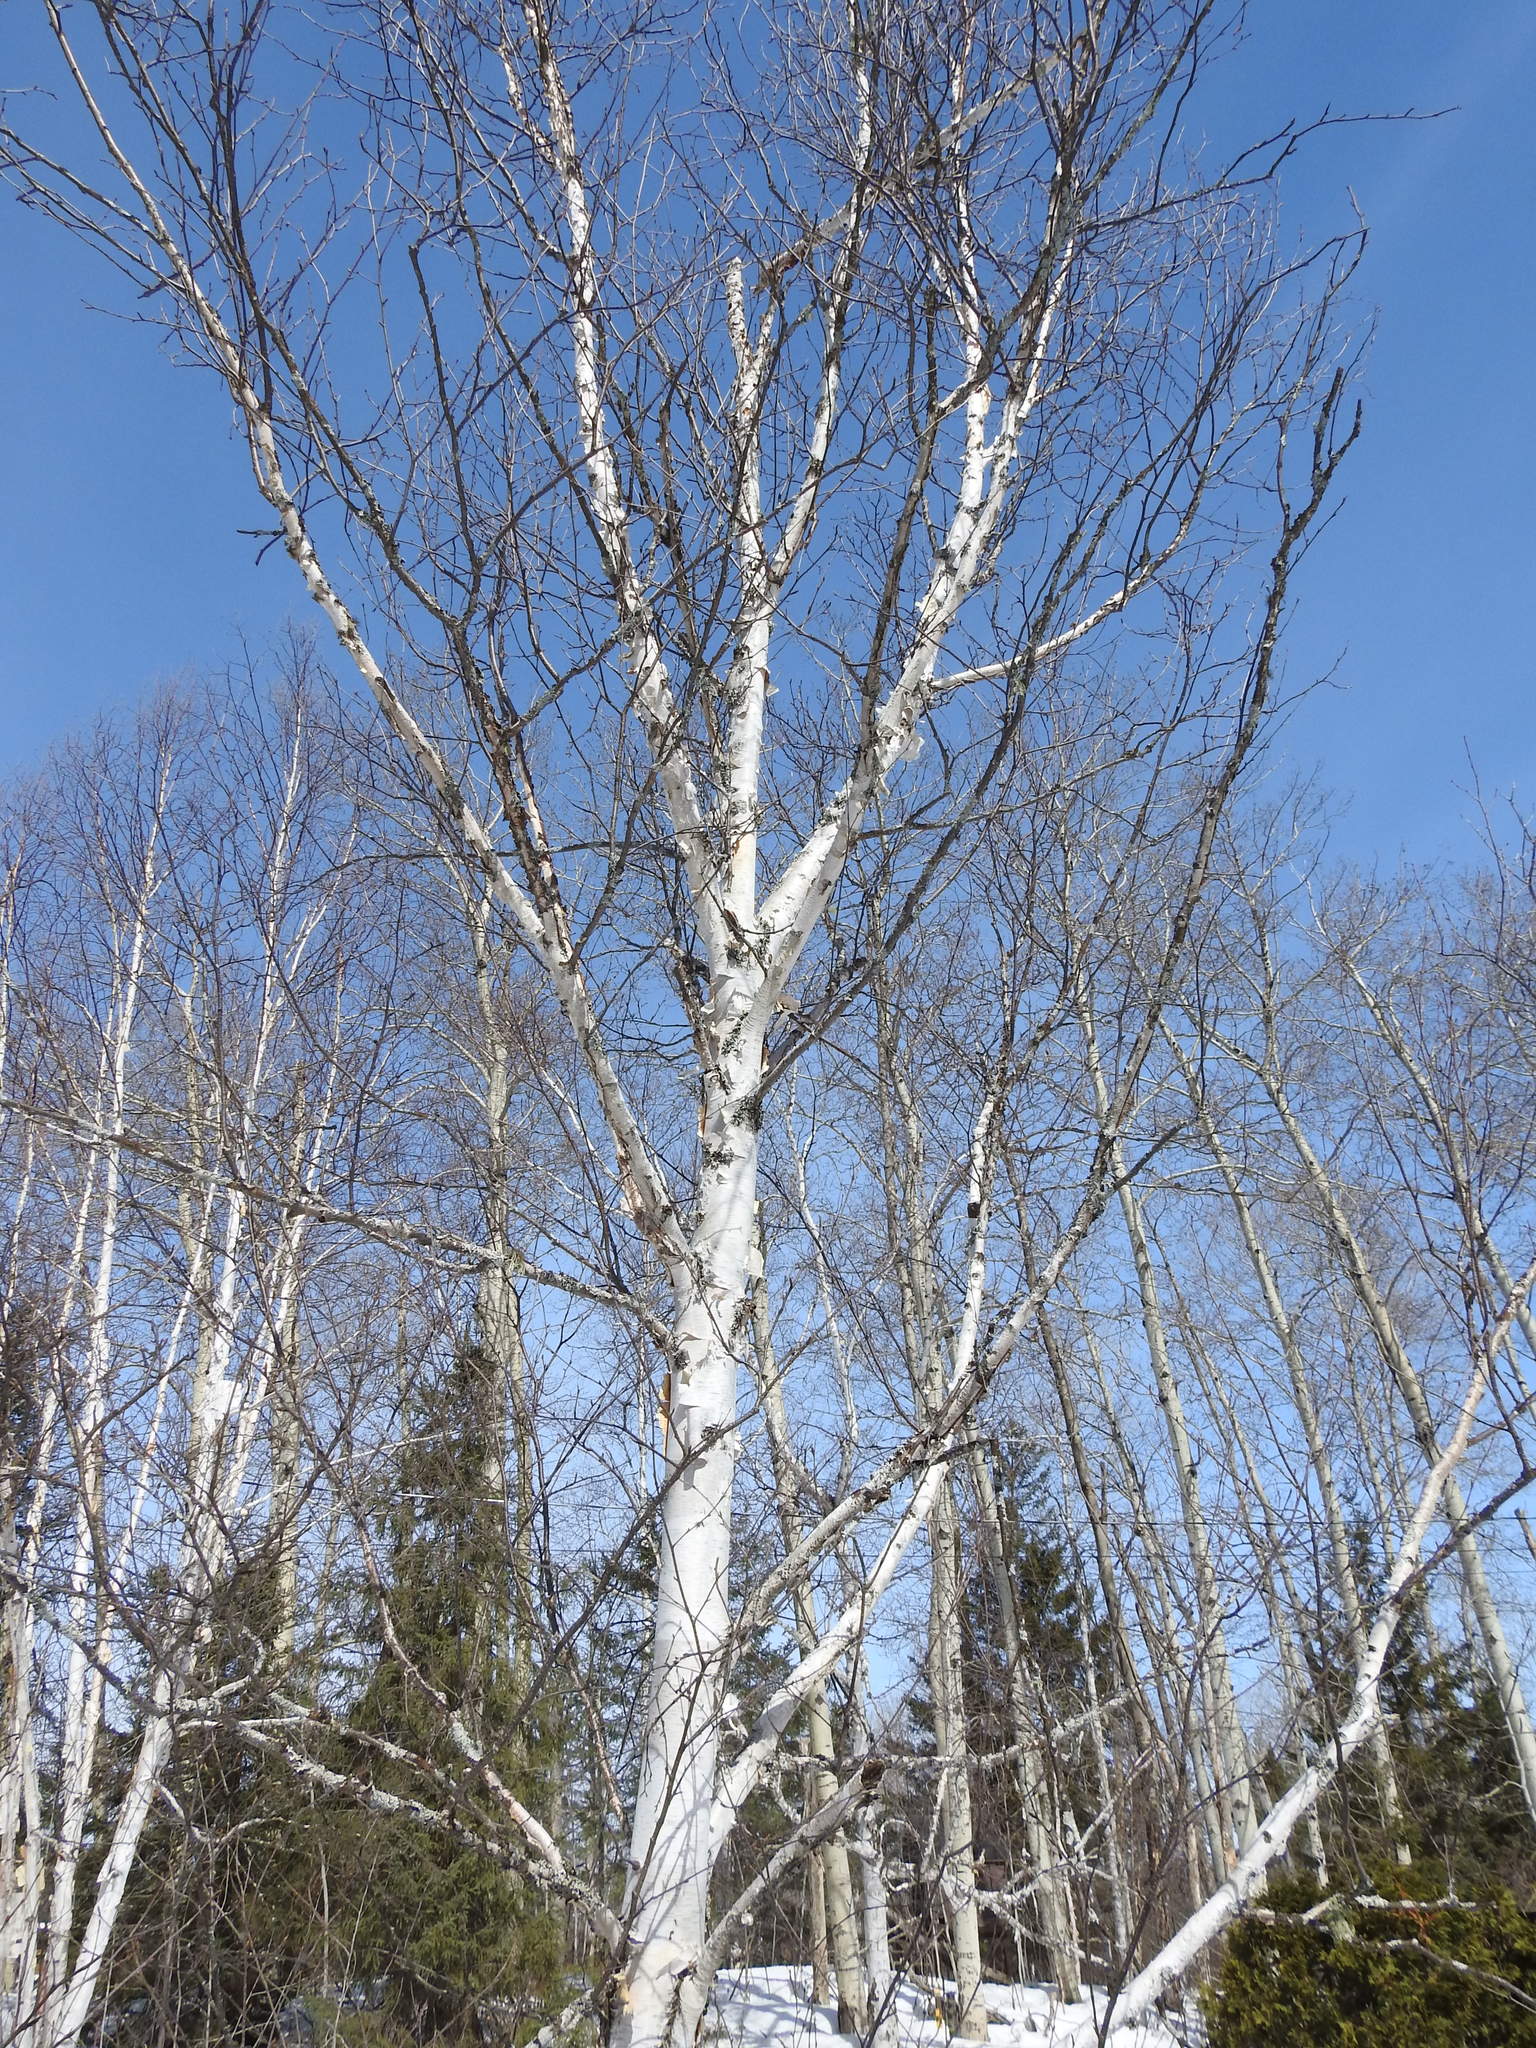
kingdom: Plantae
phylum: Tracheophyta
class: Magnoliopsida
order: Fagales
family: Betulaceae
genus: Betula
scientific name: Betula papyrifera
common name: Paper birch
